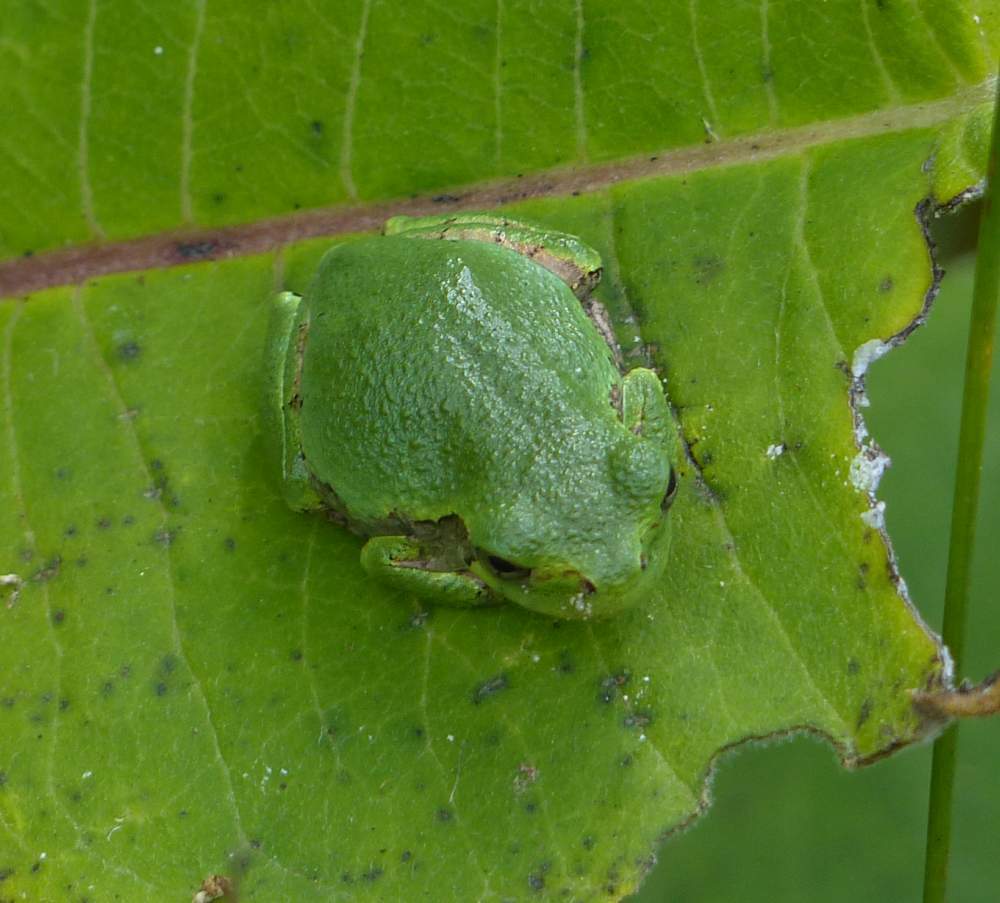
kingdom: Animalia
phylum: Chordata
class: Amphibia
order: Anura
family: Hylidae
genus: Dryophytes
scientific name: Dryophytes versicolor
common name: Gray treefrog
